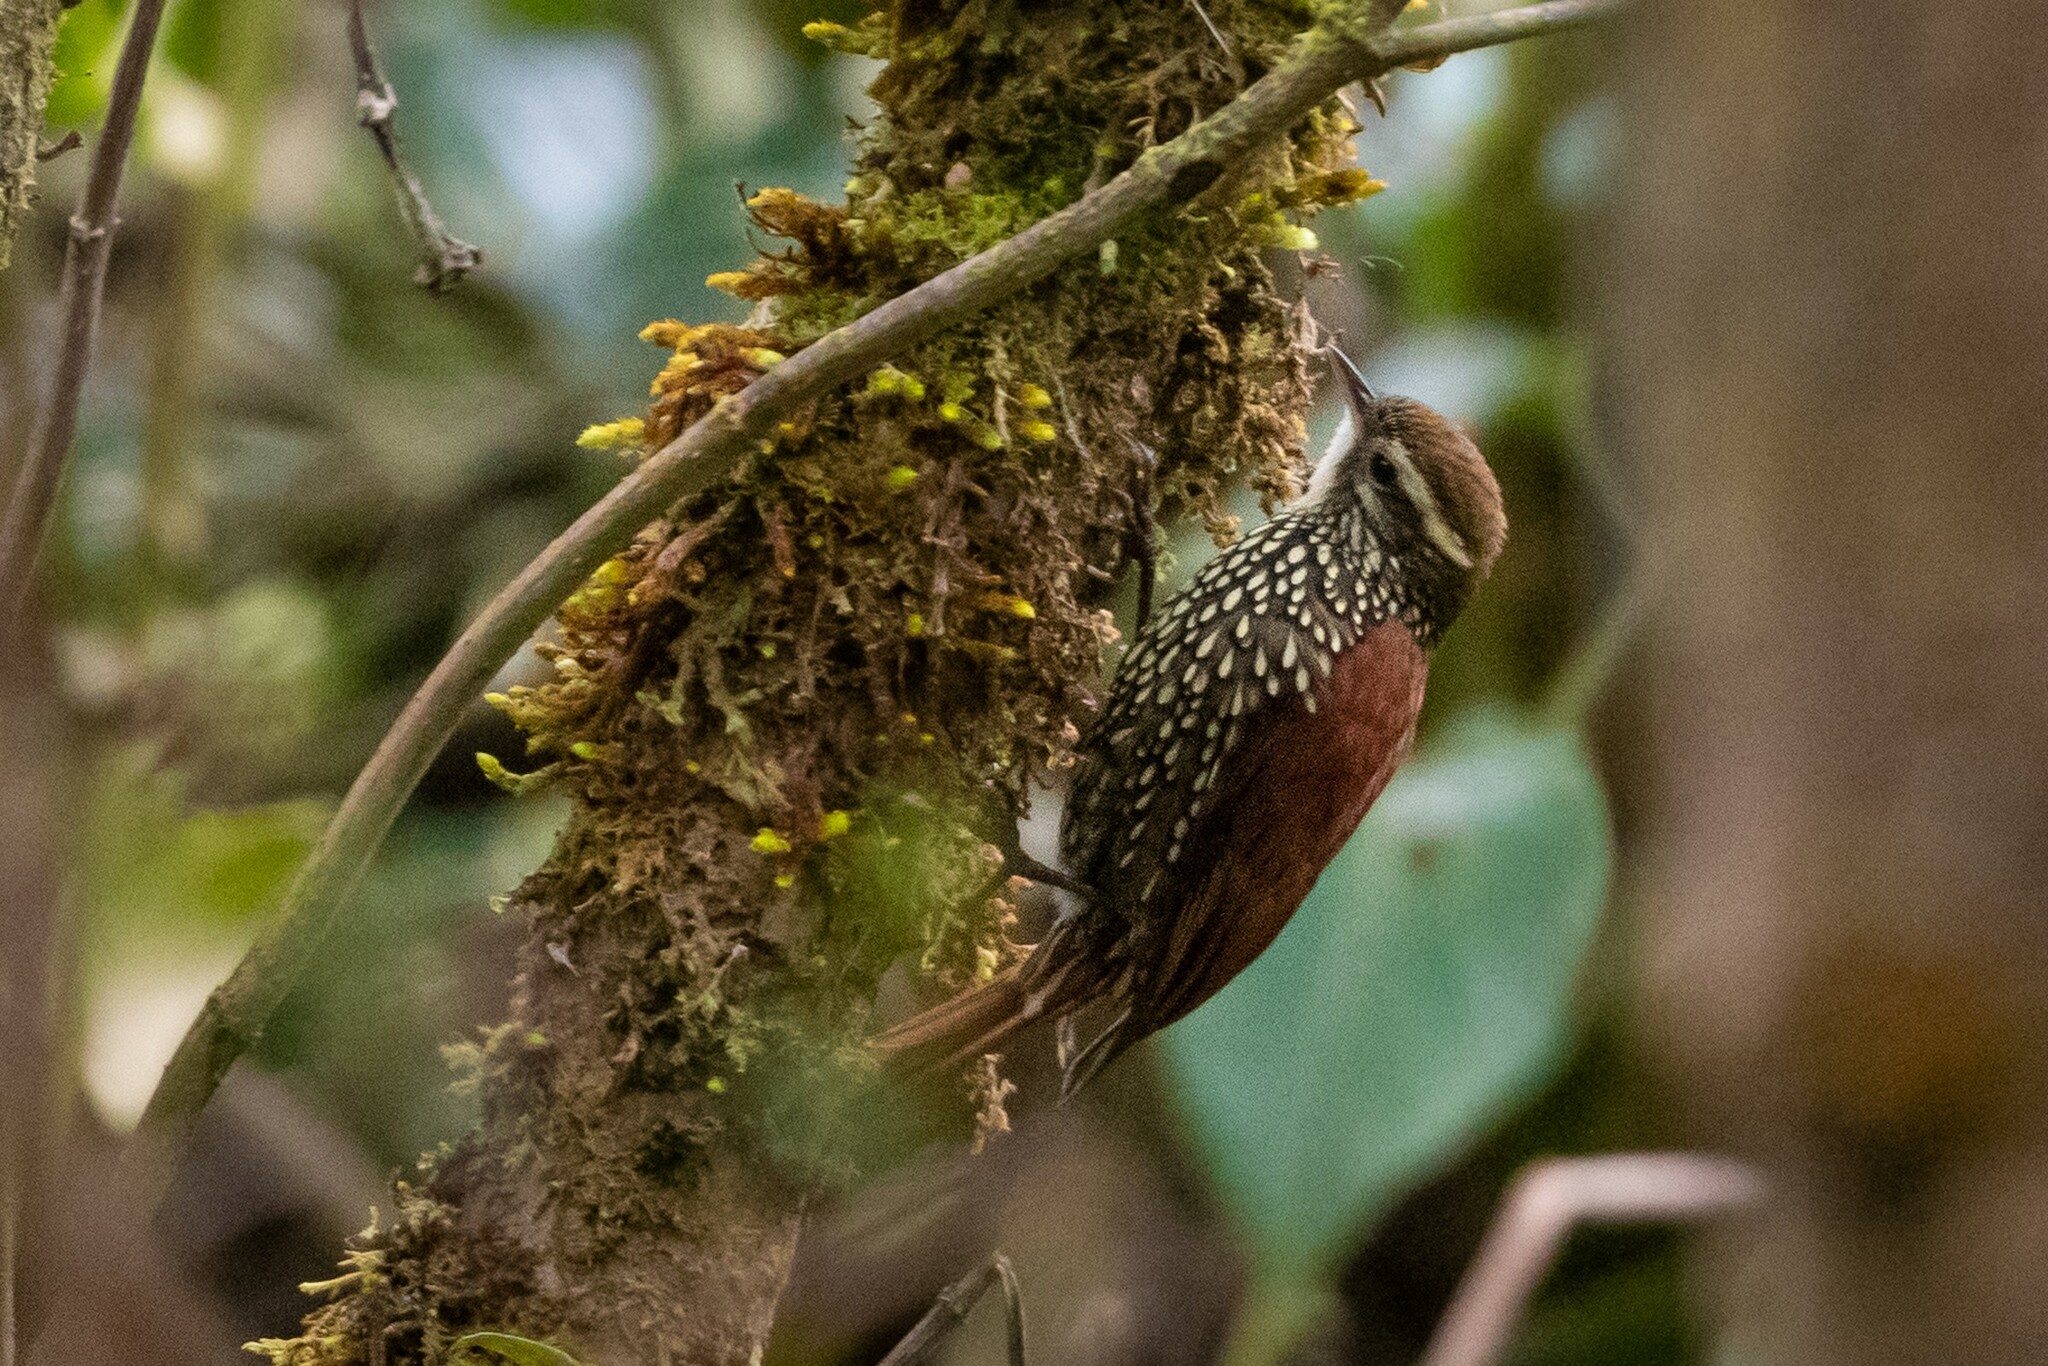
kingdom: Animalia
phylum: Chordata
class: Aves
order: Passeriformes
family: Furnariidae
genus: Margarornis
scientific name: Margarornis squamiger
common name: Pearled treerunner
